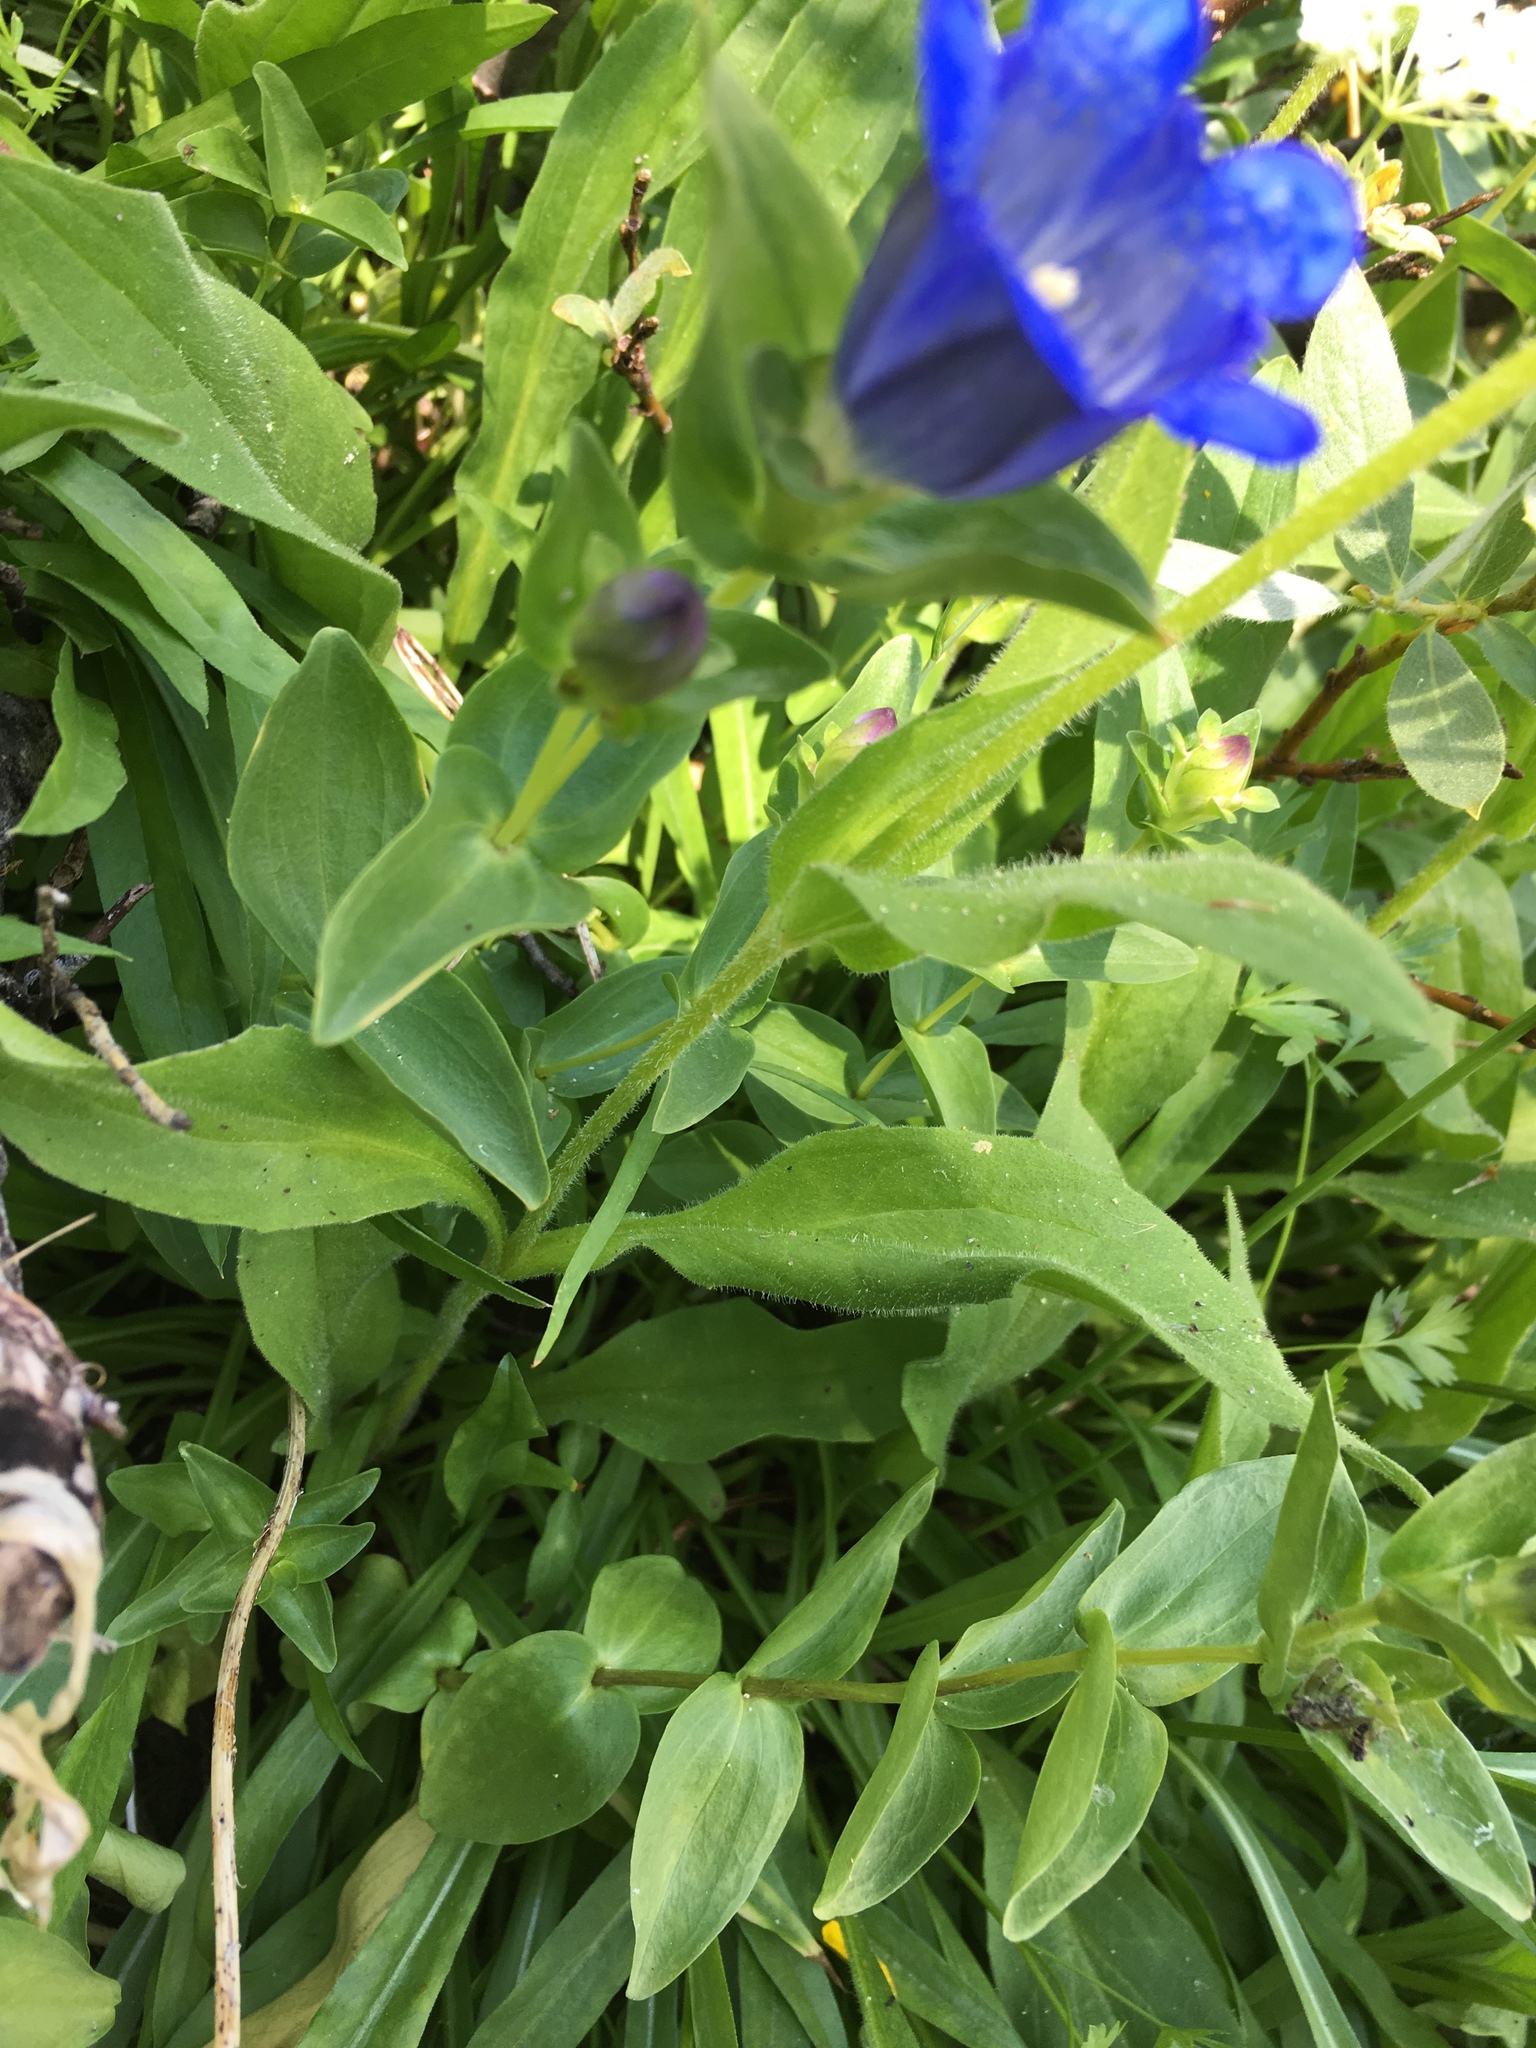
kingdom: Plantae
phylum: Tracheophyta
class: Magnoliopsida
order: Gentianales
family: Gentianaceae
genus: Gentiana
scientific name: Gentiana calycosa
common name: Rainier pleated gentian
